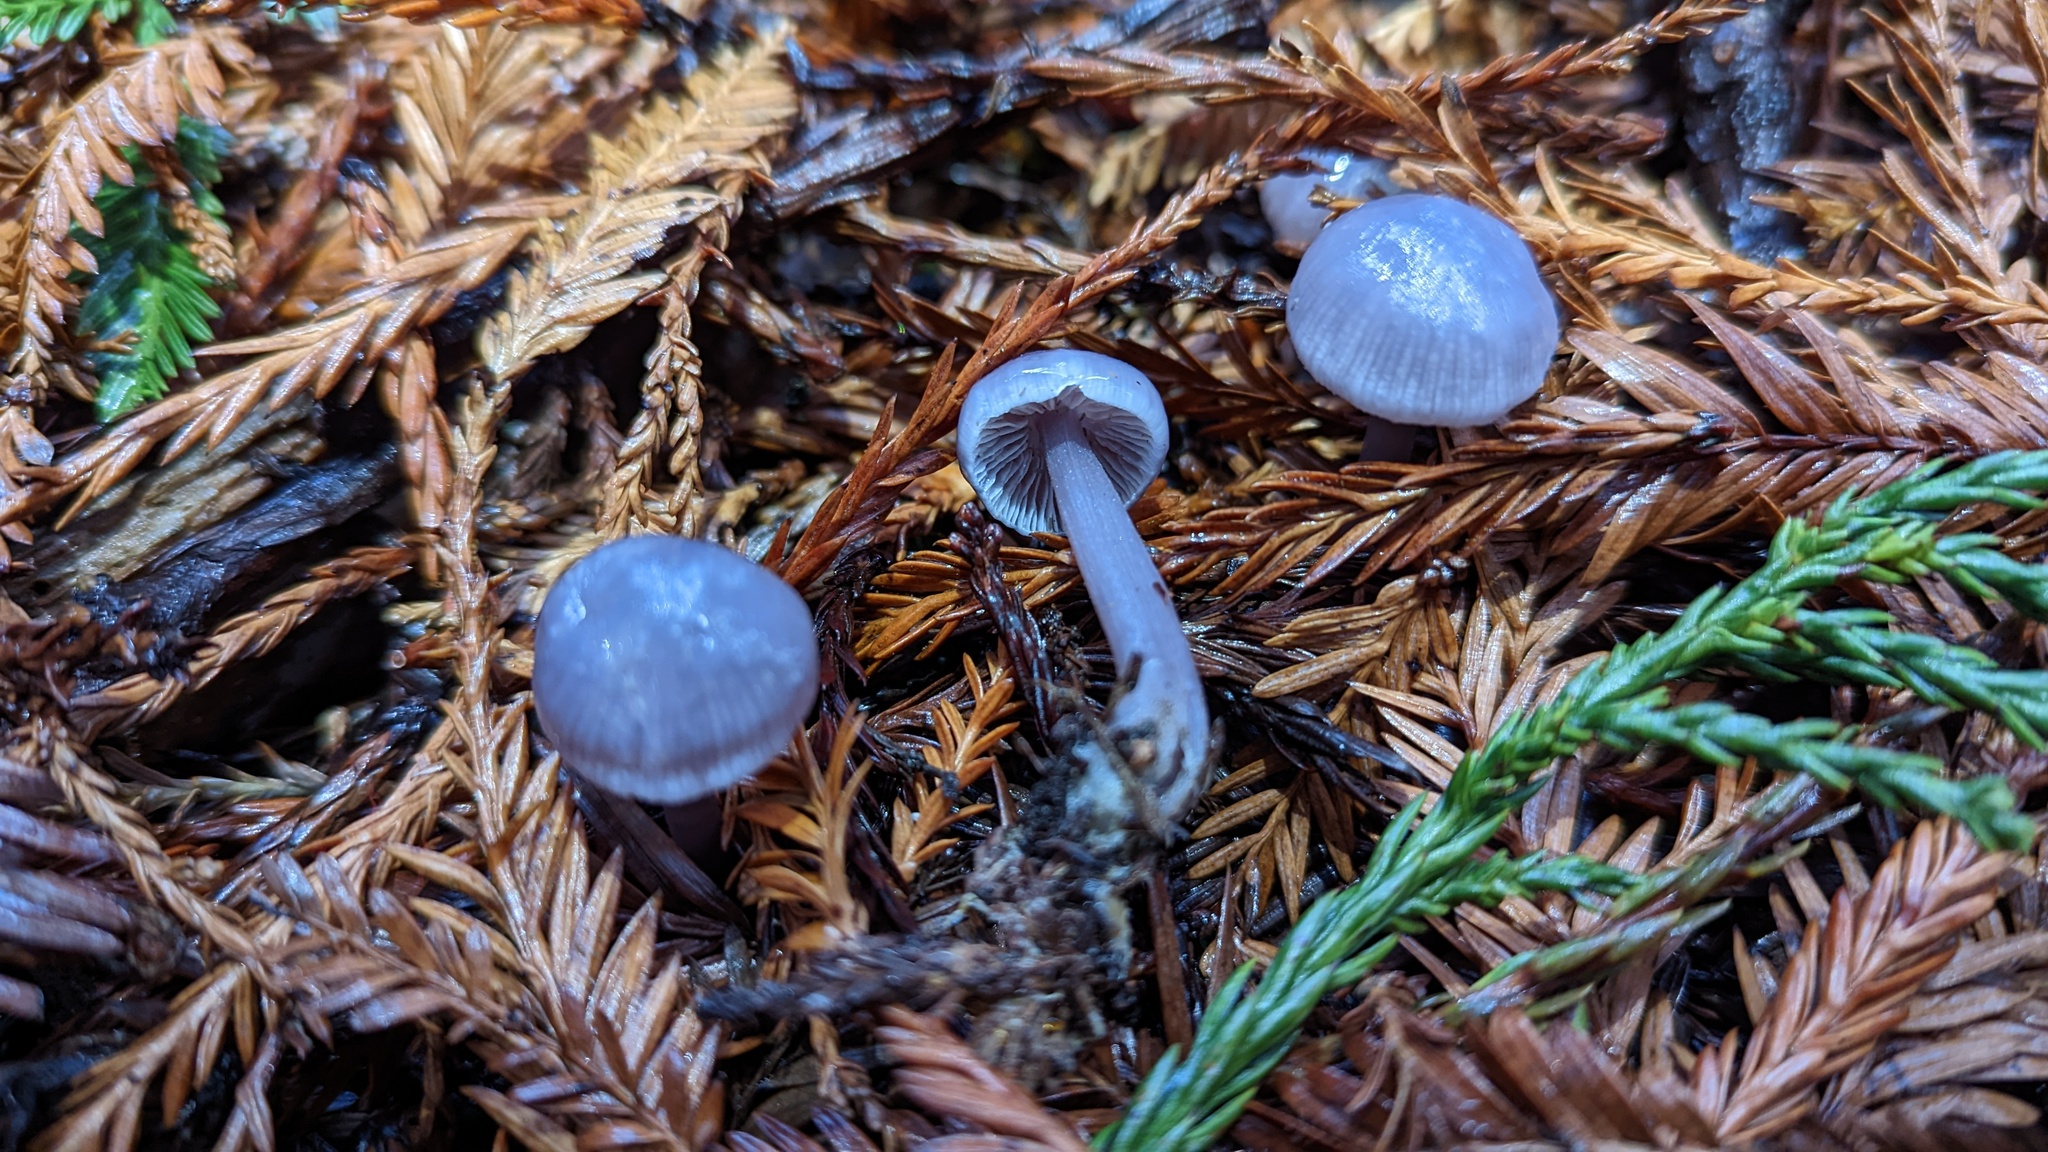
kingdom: Fungi
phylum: Basidiomycota
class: Agaricomycetes
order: Agaricales
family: Mycenaceae
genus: Mycena
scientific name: Mycena pura
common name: Lilac bonnet
